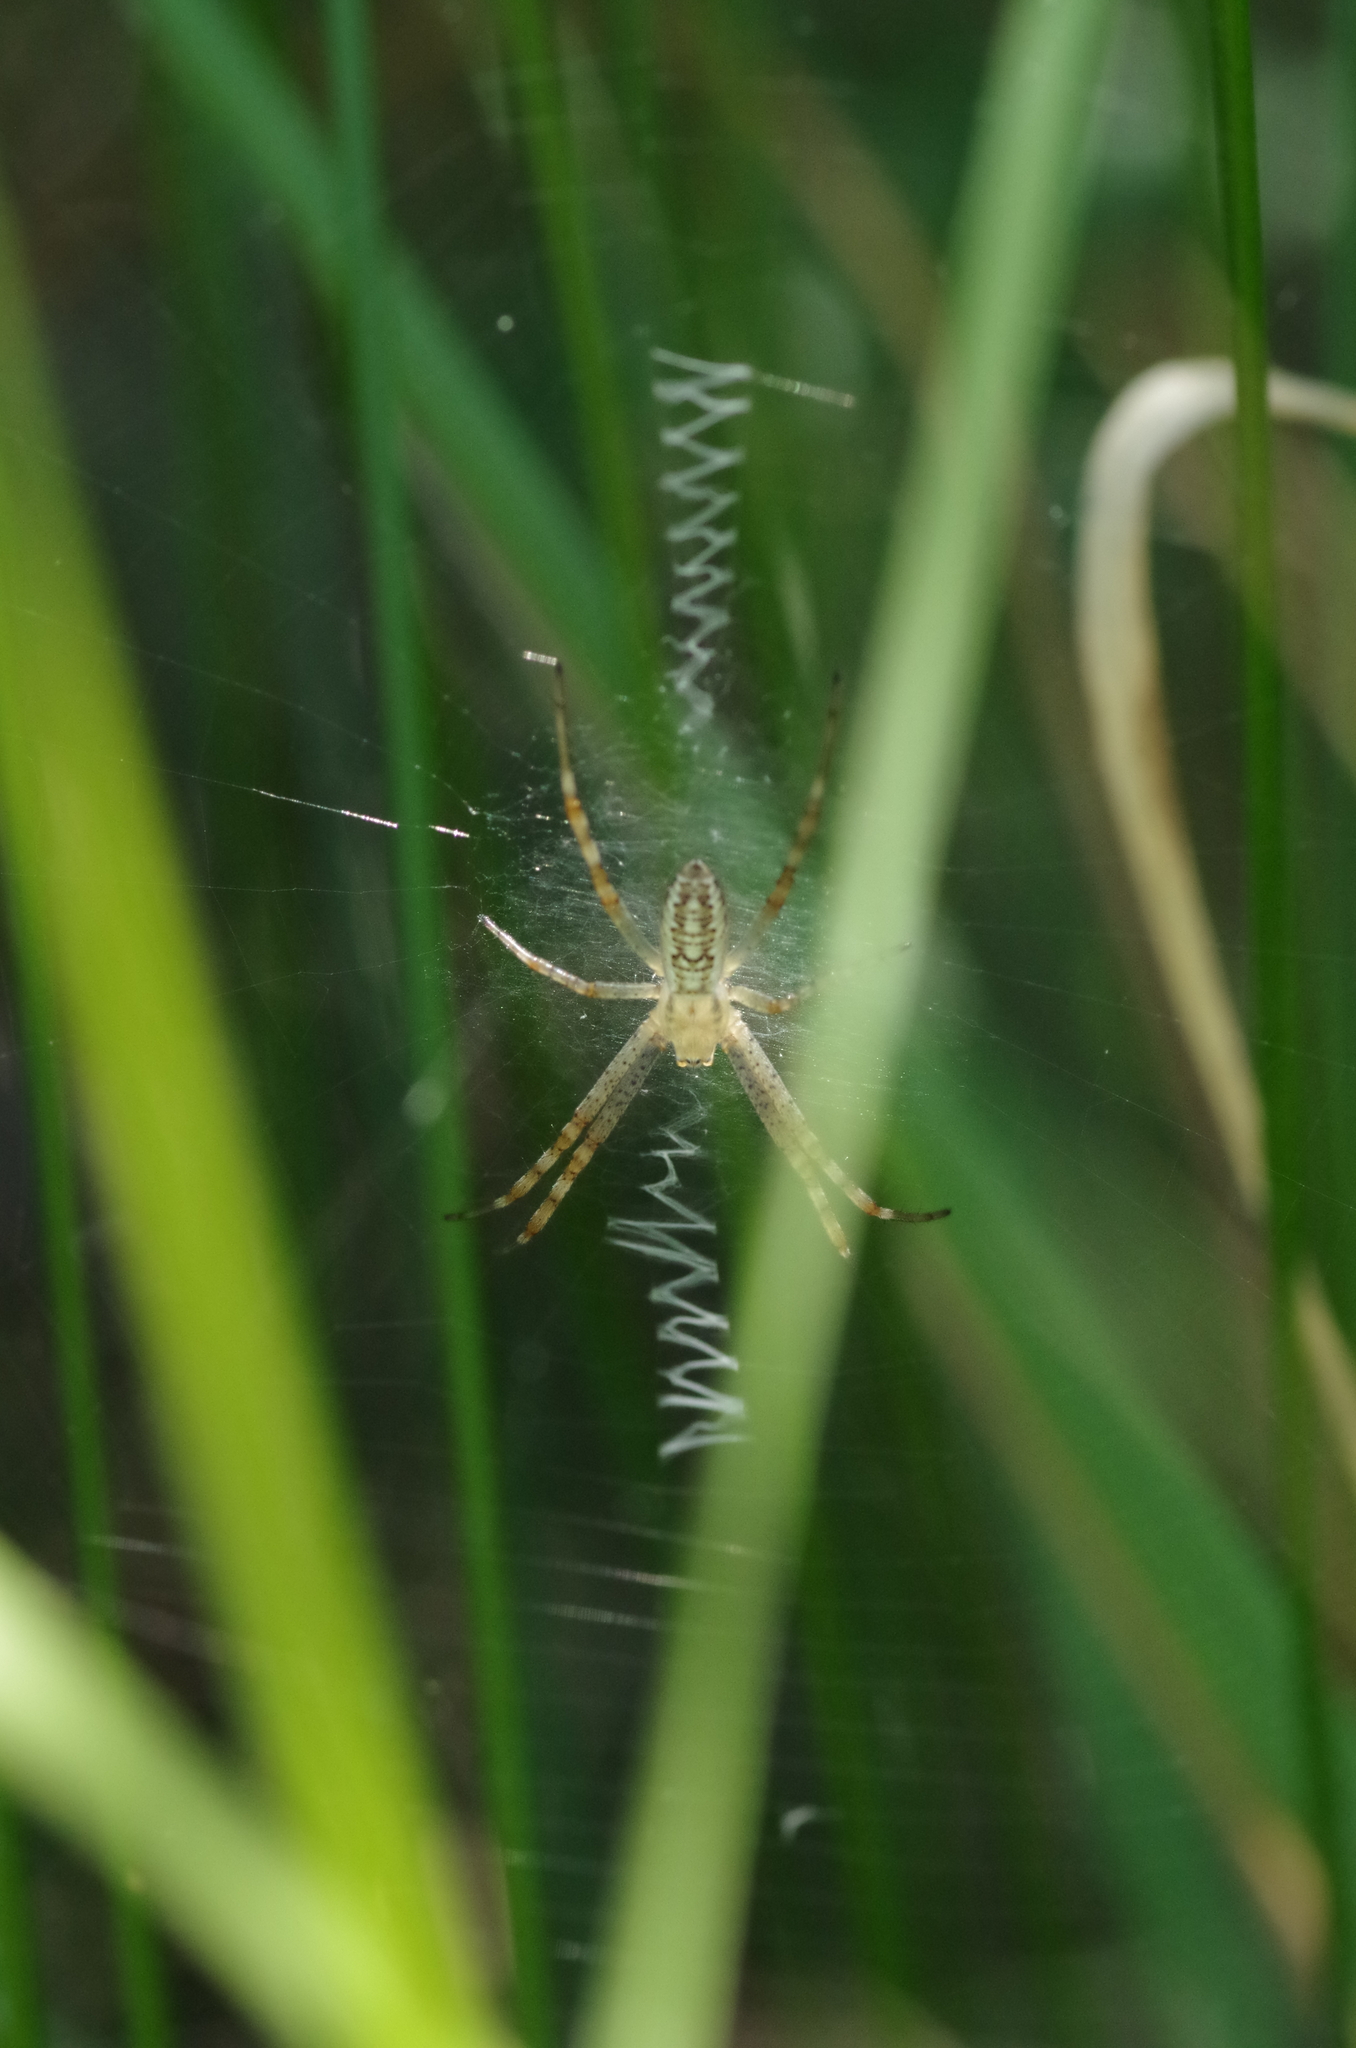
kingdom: Animalia
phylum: Arthropoda
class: Arachnida
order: Araneae
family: Araneidae
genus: Argiope
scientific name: Argiope bruennichi
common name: Wasp spider
